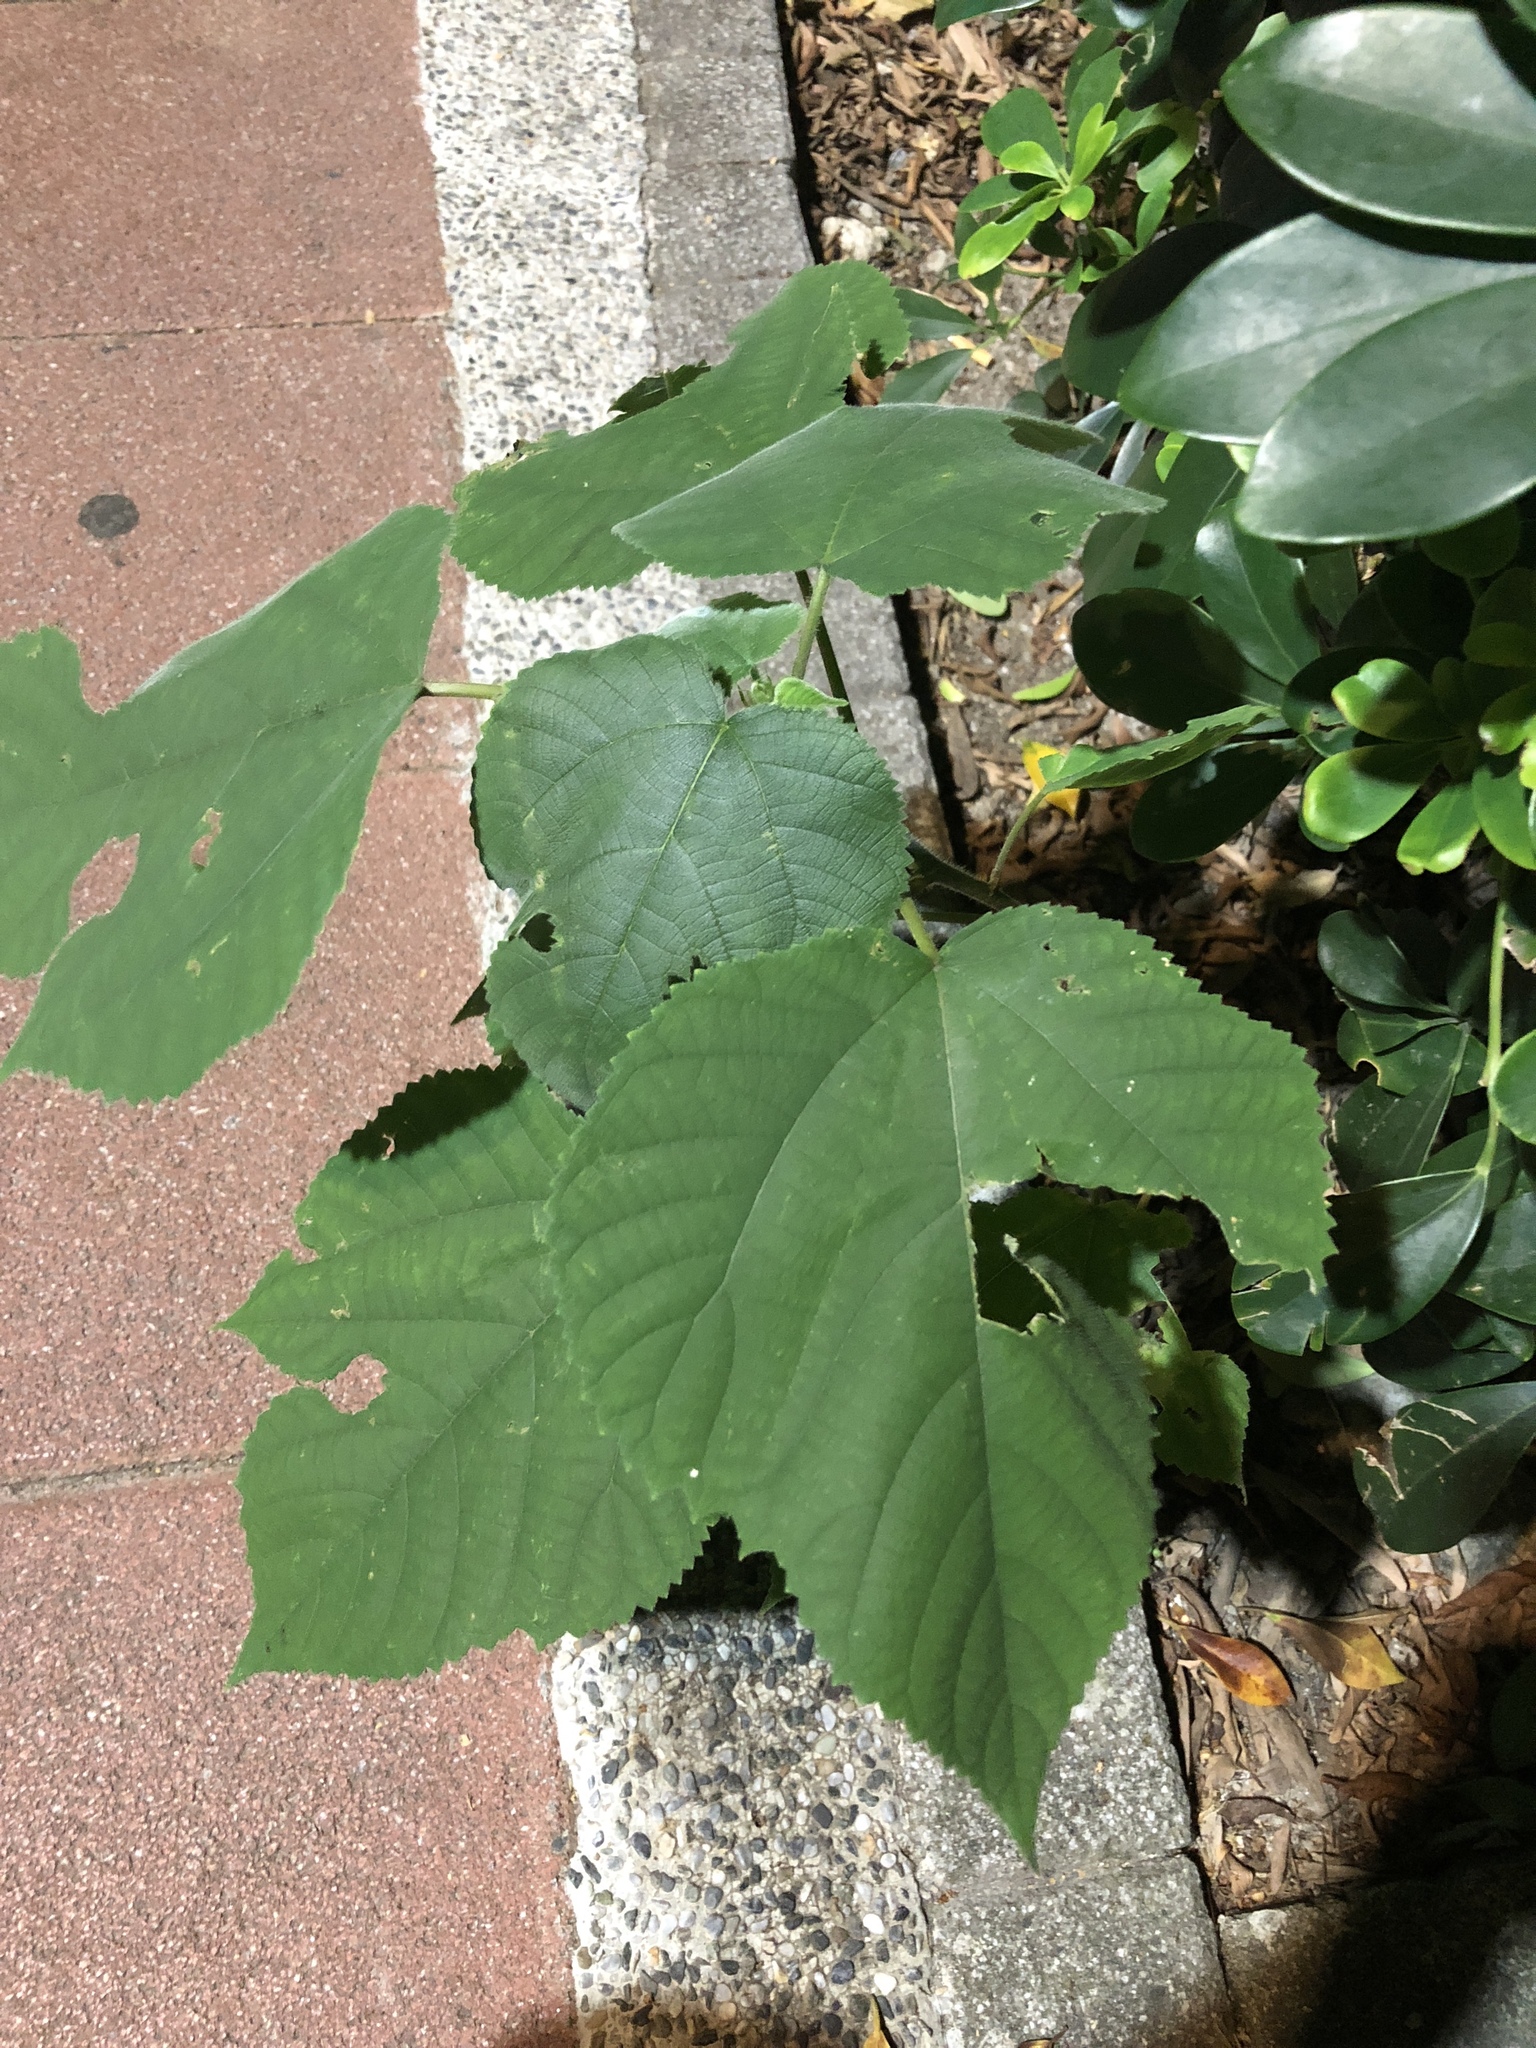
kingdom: Plantae
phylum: Tracheophyta
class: Magnoliopsida
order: Rosales
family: Moraceae
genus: Broussonetia
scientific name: Broussonetia papyrifera
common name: Paper mulberry
